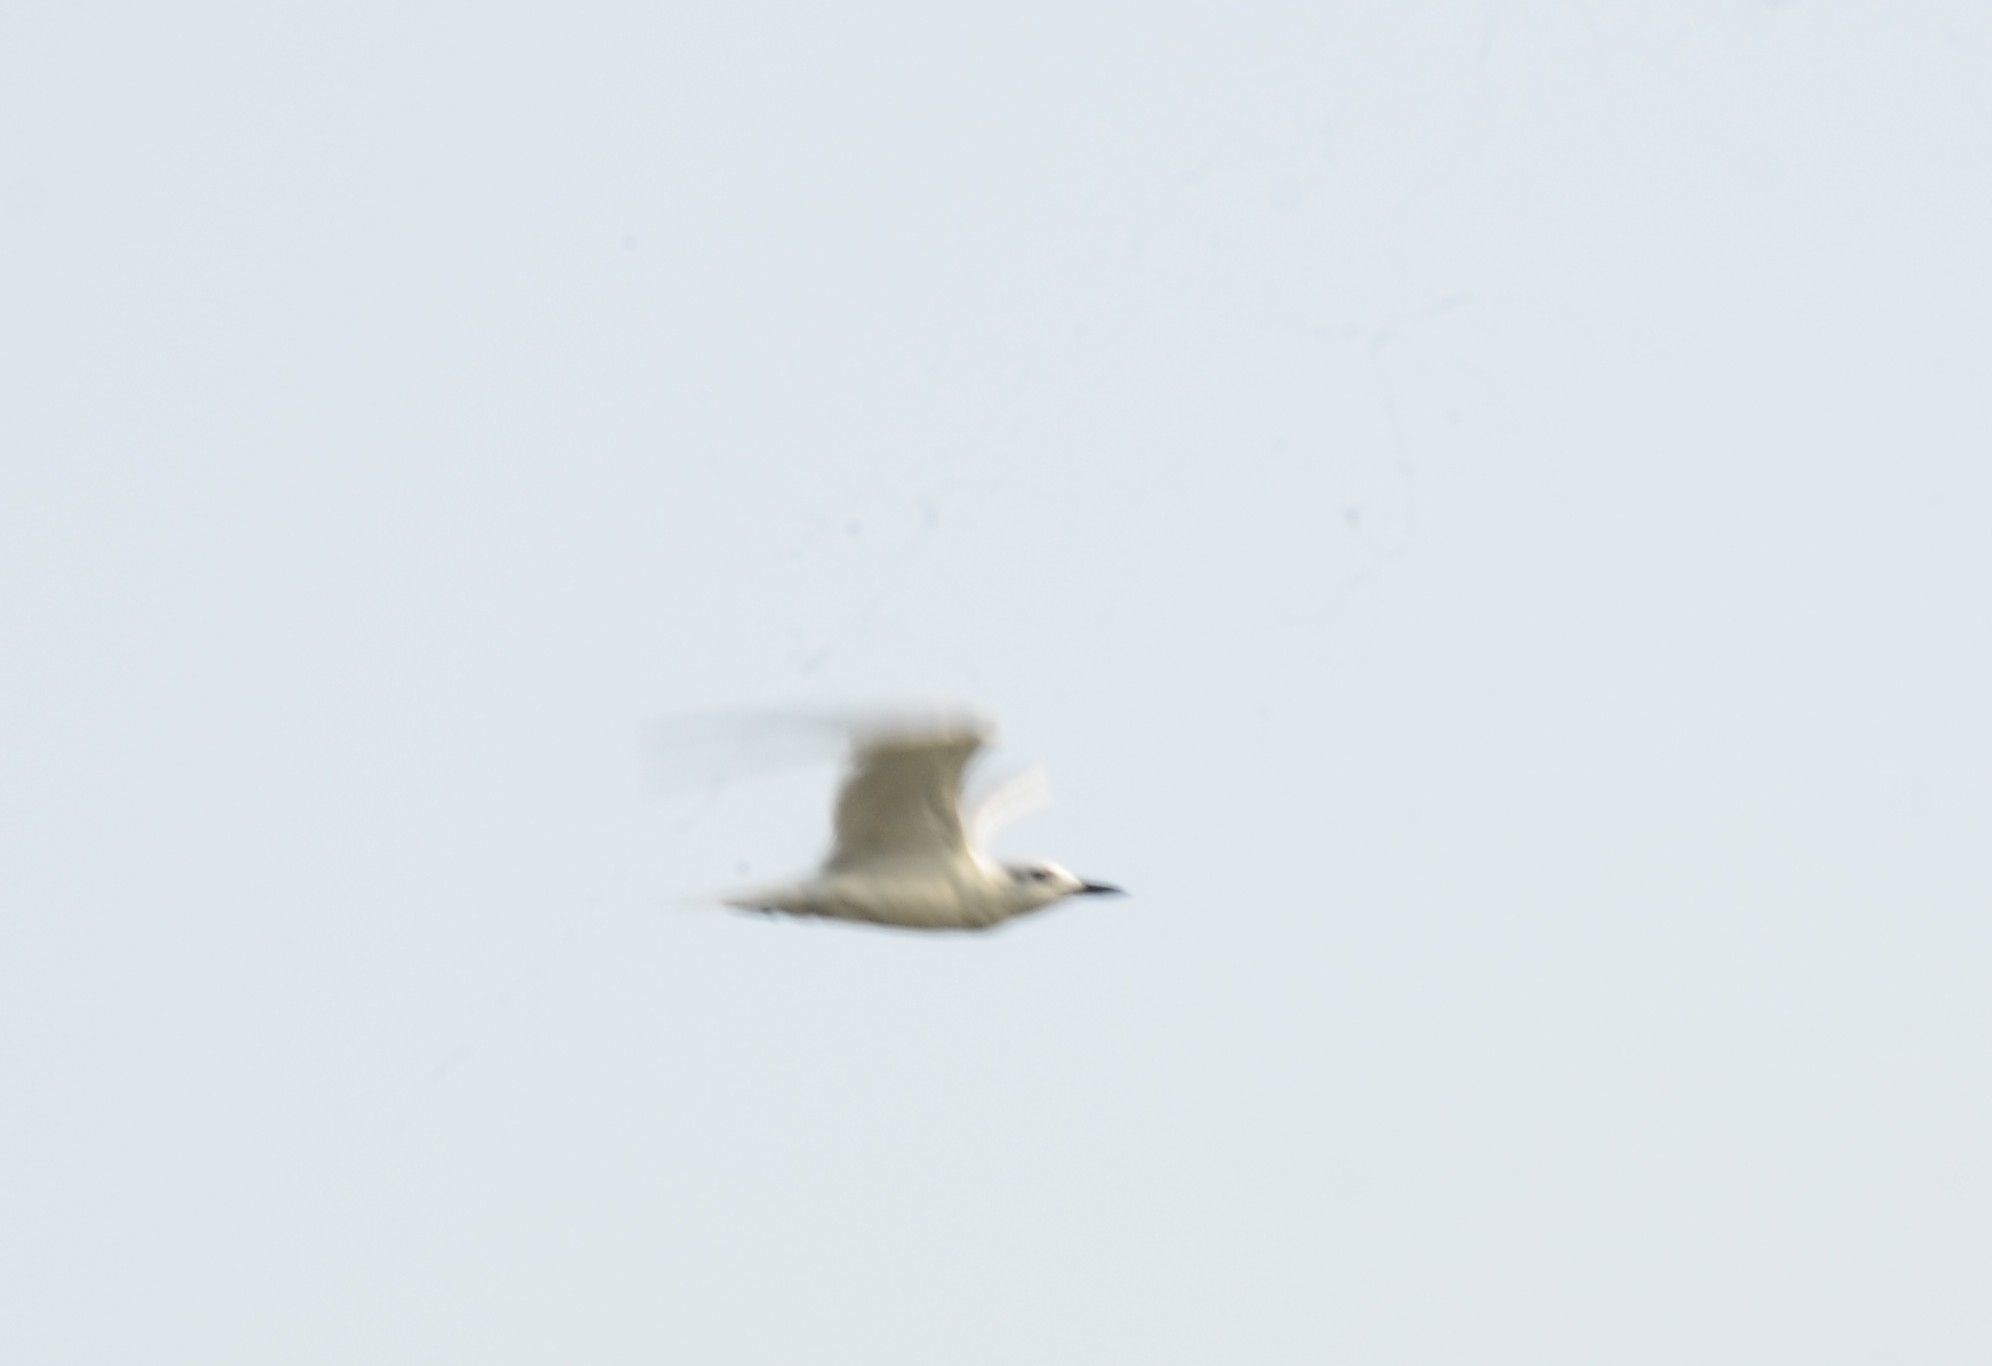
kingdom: Animalia
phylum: Chordata
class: Aves
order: Charadriiformes
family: Laridae
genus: Gelochelidon
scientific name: Gelochelidon nilotica
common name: Gull-billed tern
